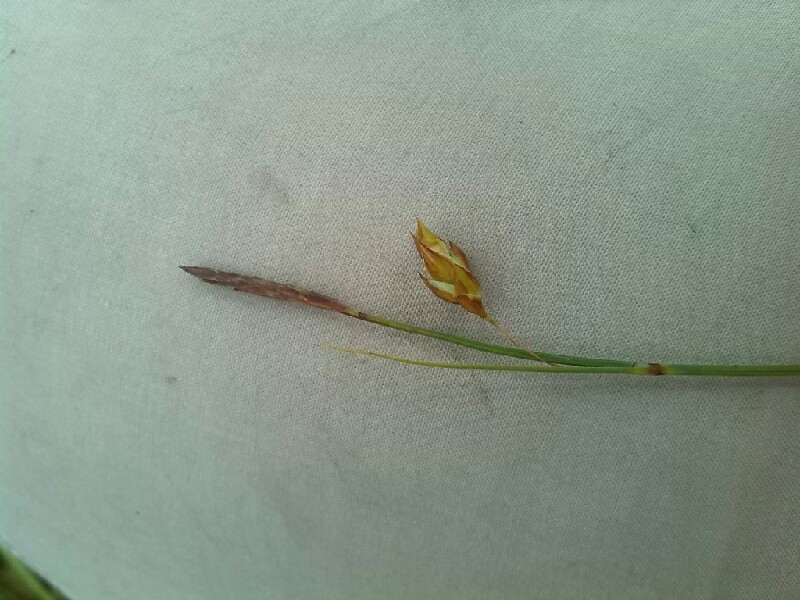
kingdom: Plantae
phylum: Tracheophyta
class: Liliopsida
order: Poales
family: Cyperaceae
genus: Carex
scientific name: Carex limosa
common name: Bog sedge
